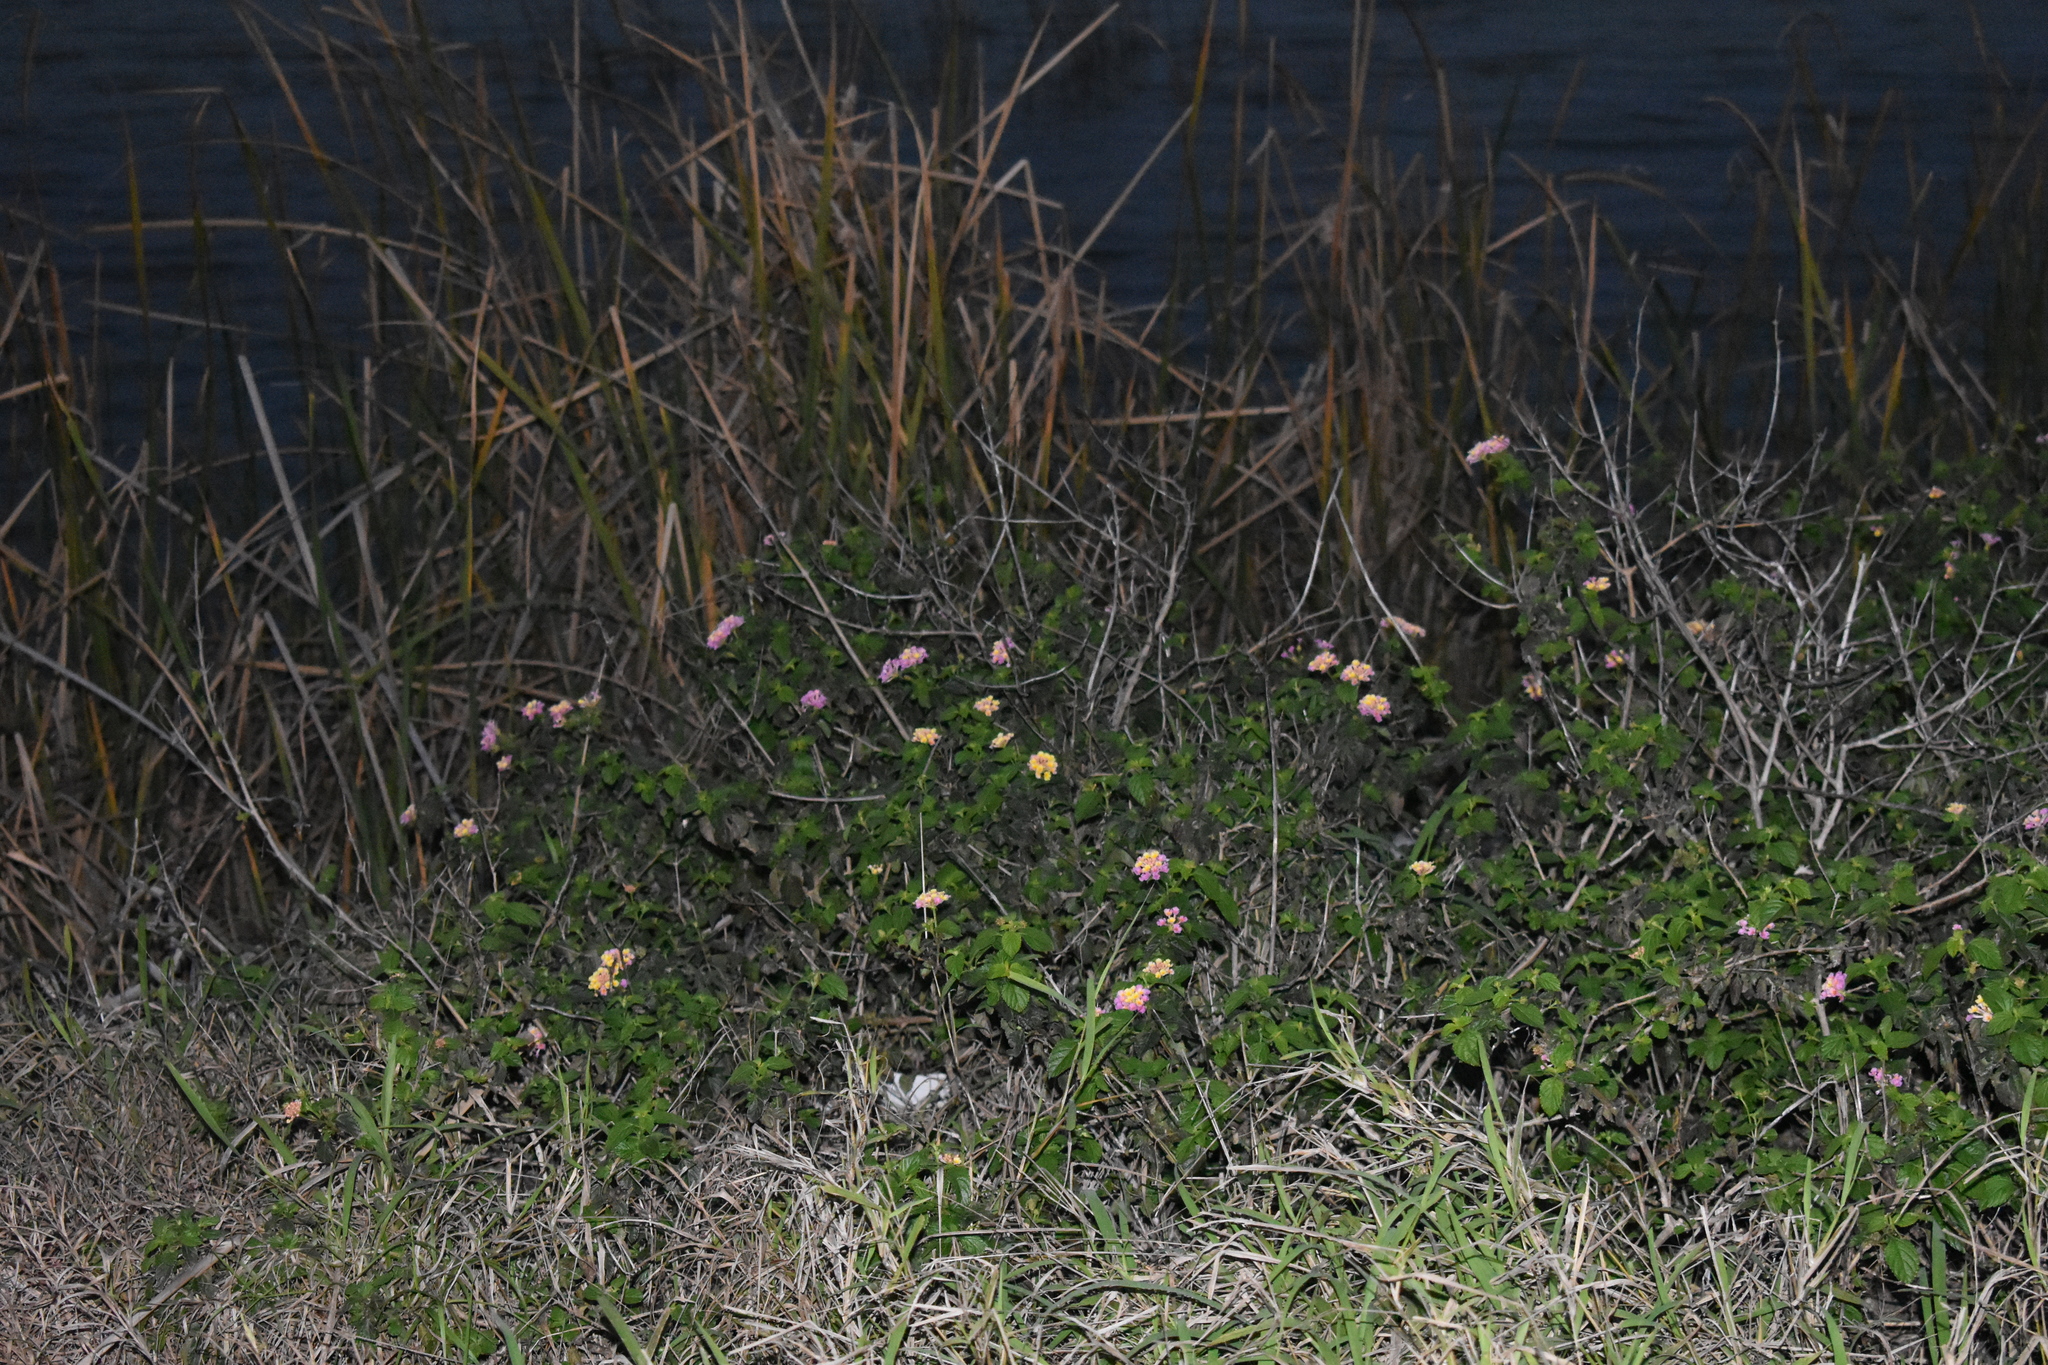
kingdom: Plantae
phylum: Tracheophyta
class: Magnoliopsida
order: Lamiales
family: Verbenaceae
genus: Lantana
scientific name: Lantana strigocamara
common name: Lantana
